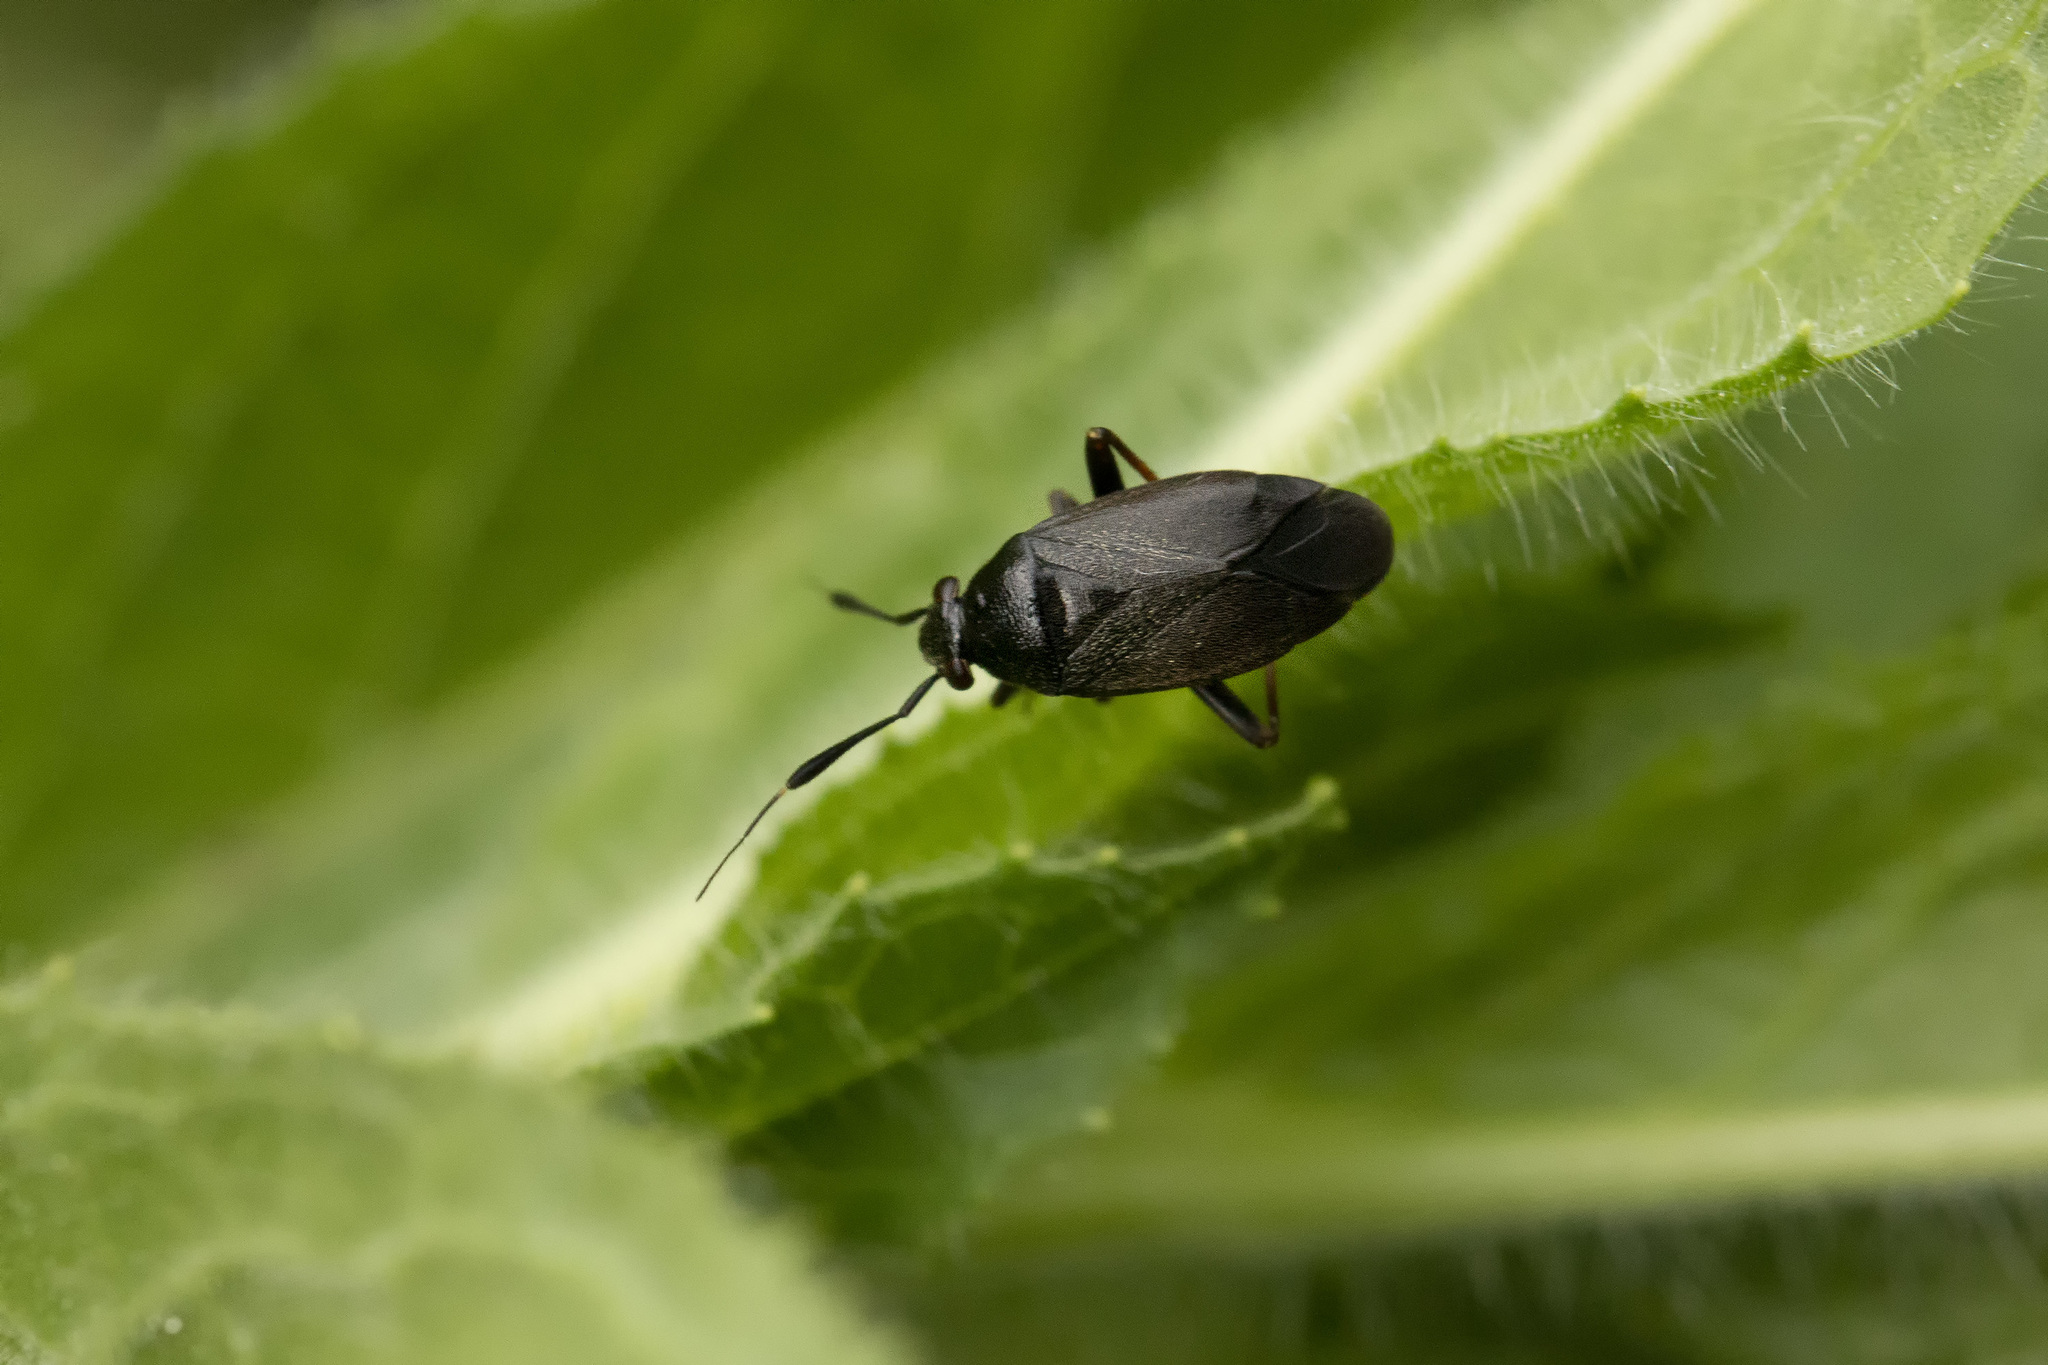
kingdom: Animalia
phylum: Arthropoda
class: Insecta
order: Hemiptera
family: Miridae
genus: Capsus
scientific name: Capsus ater
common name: Black plant bug
